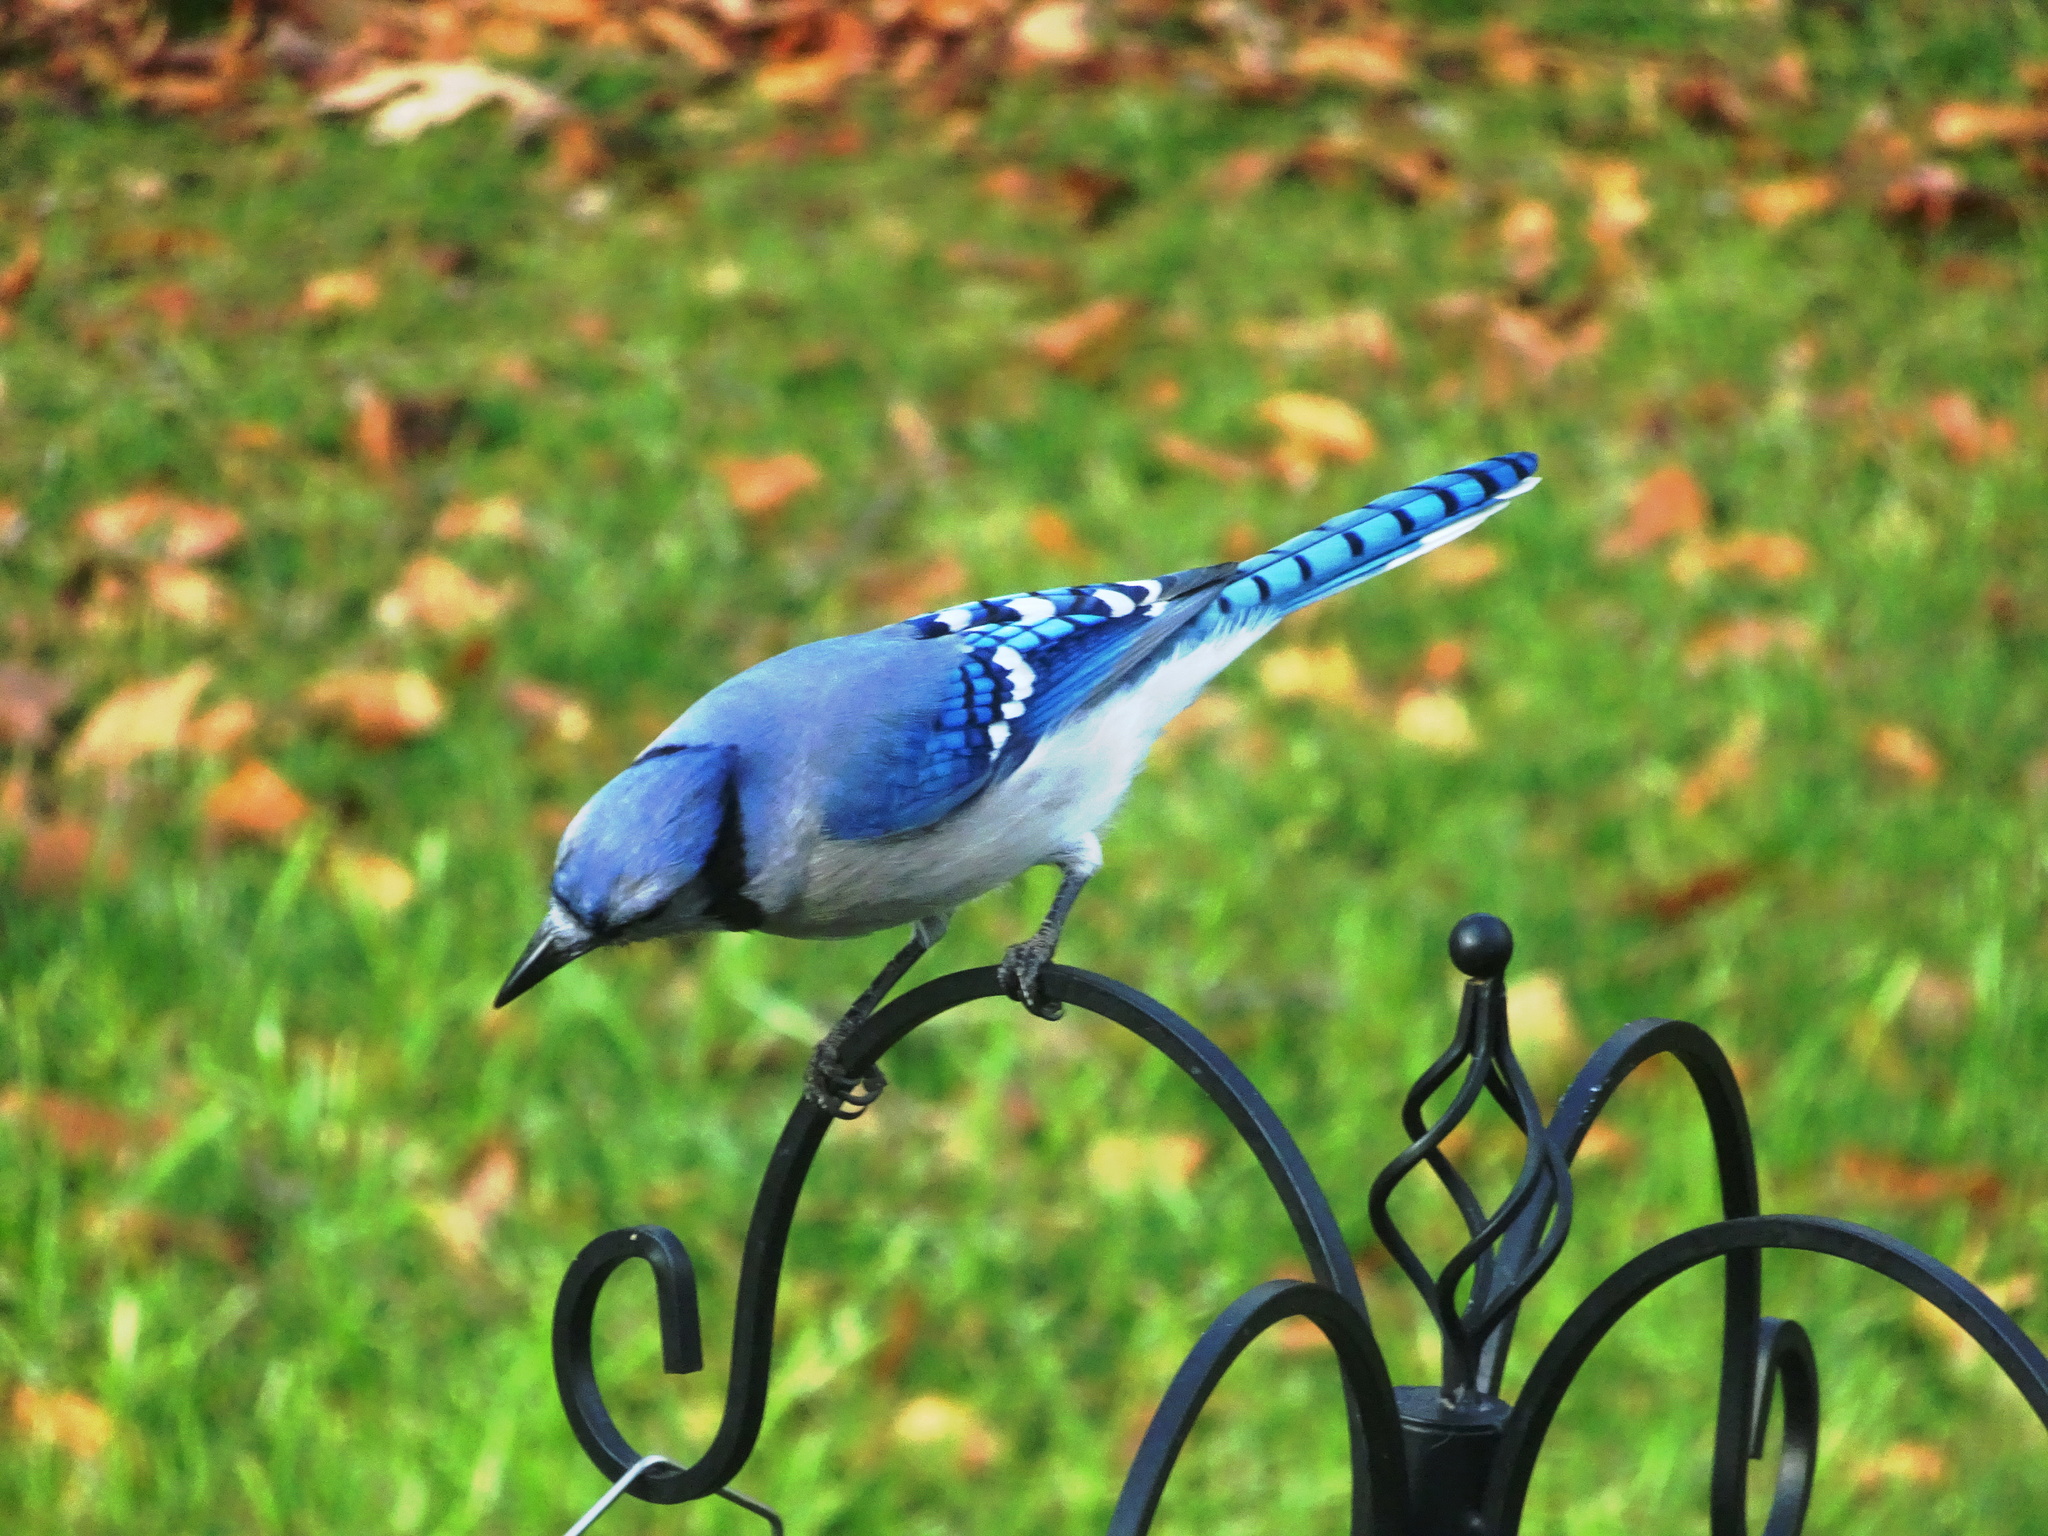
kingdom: Animalia
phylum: Chordata
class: Aves
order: Passeriformes
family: Corvidae
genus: Cyanocitta
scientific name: Cyanocitta cristata
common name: Blue jay
